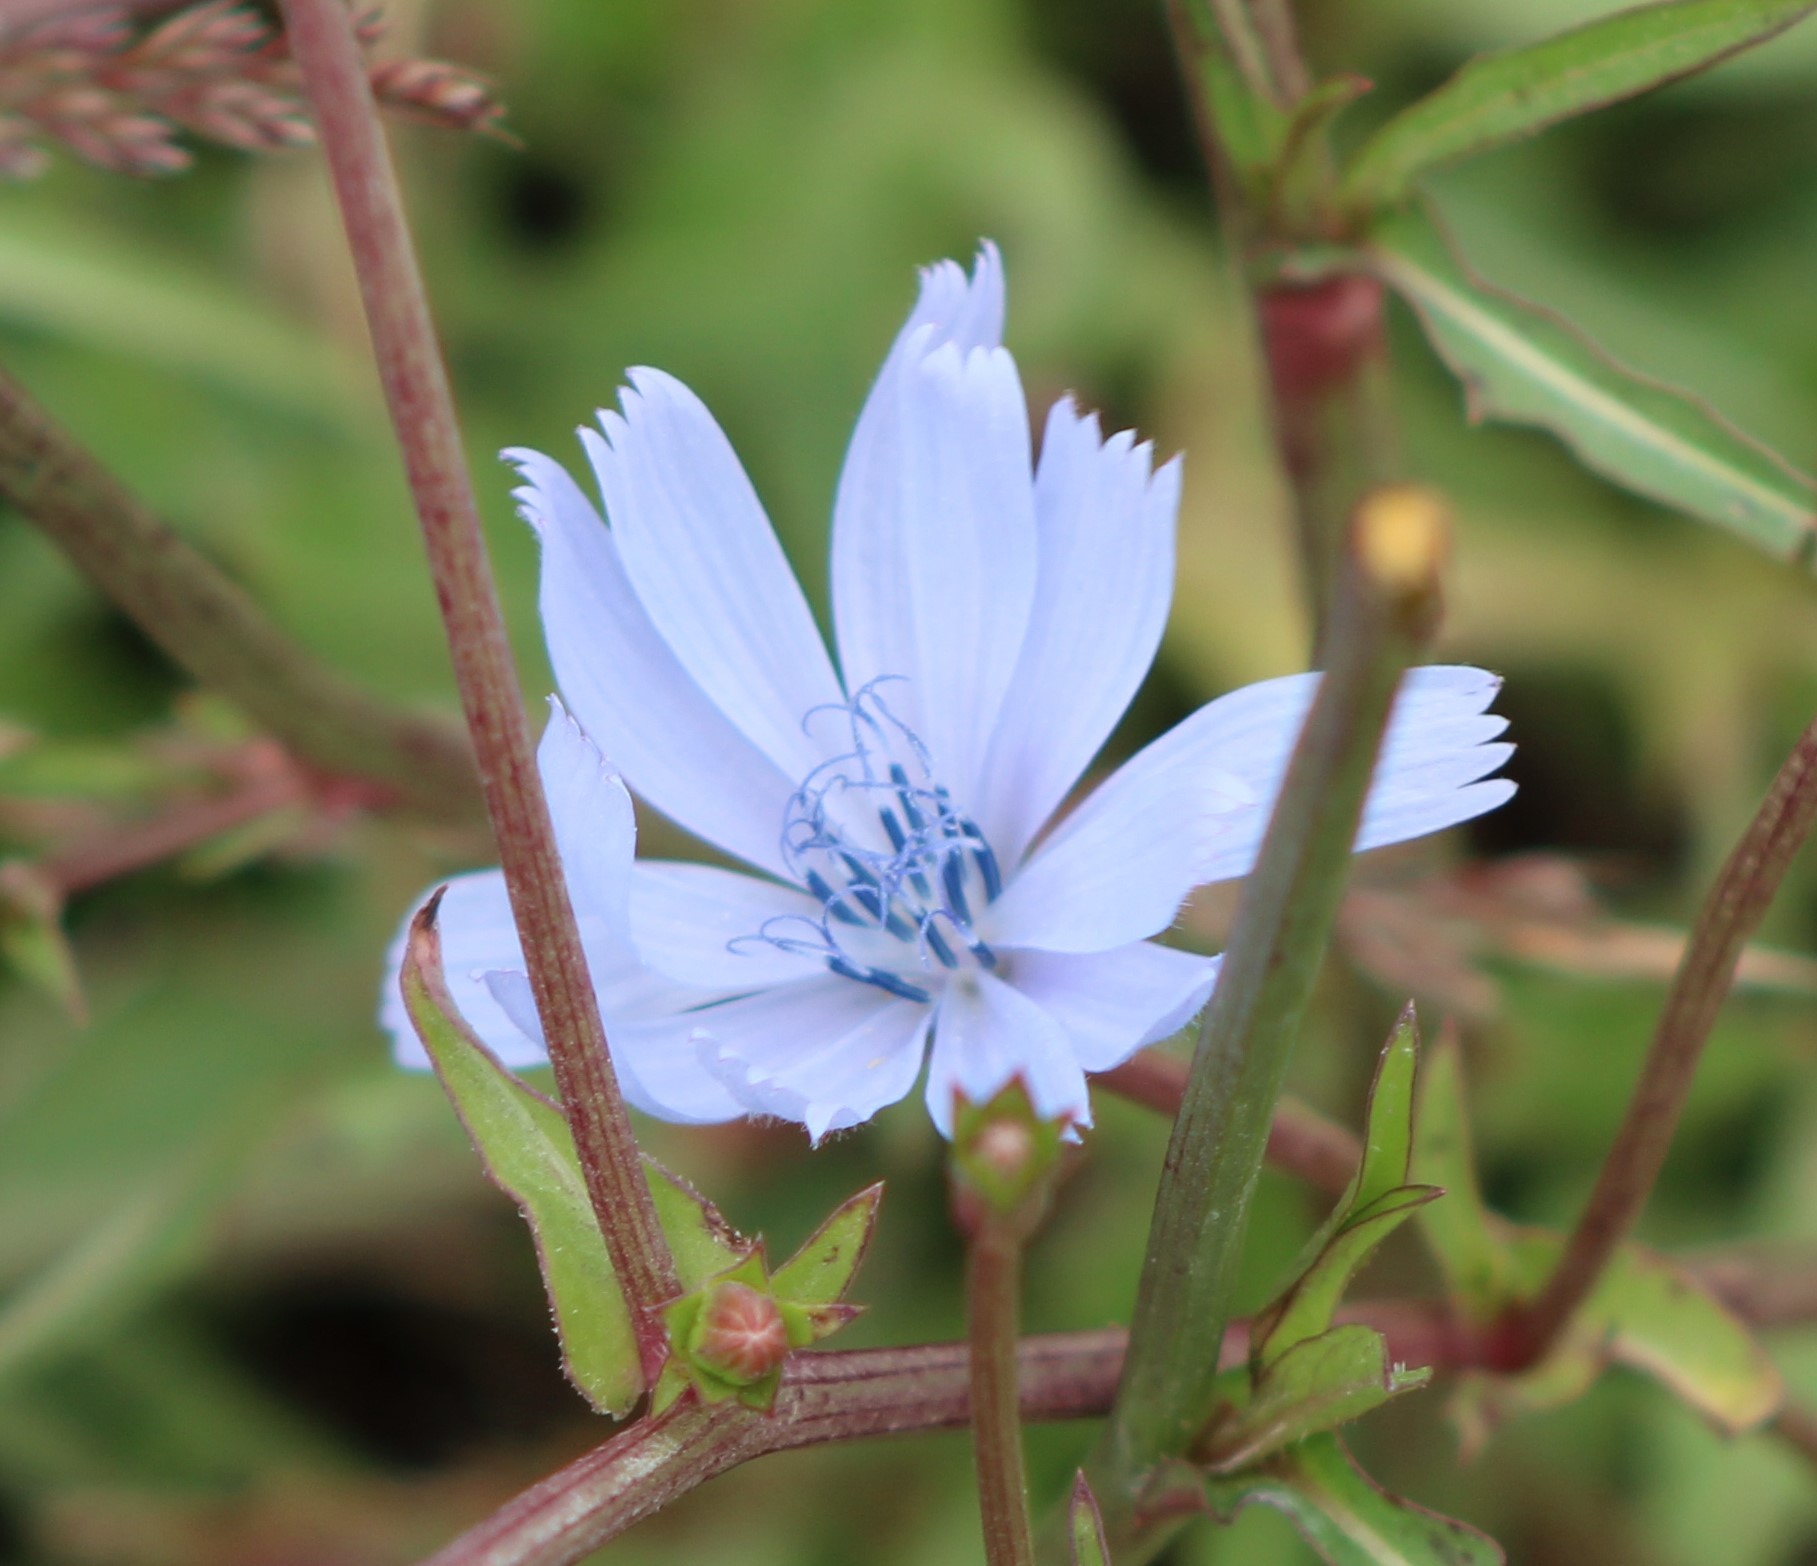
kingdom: Plantae
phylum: Tracheophyta
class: Magnoliopsida
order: Asterales
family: Asteraceae
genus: Cichorium
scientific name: Cichorium intybus
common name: Chicory
